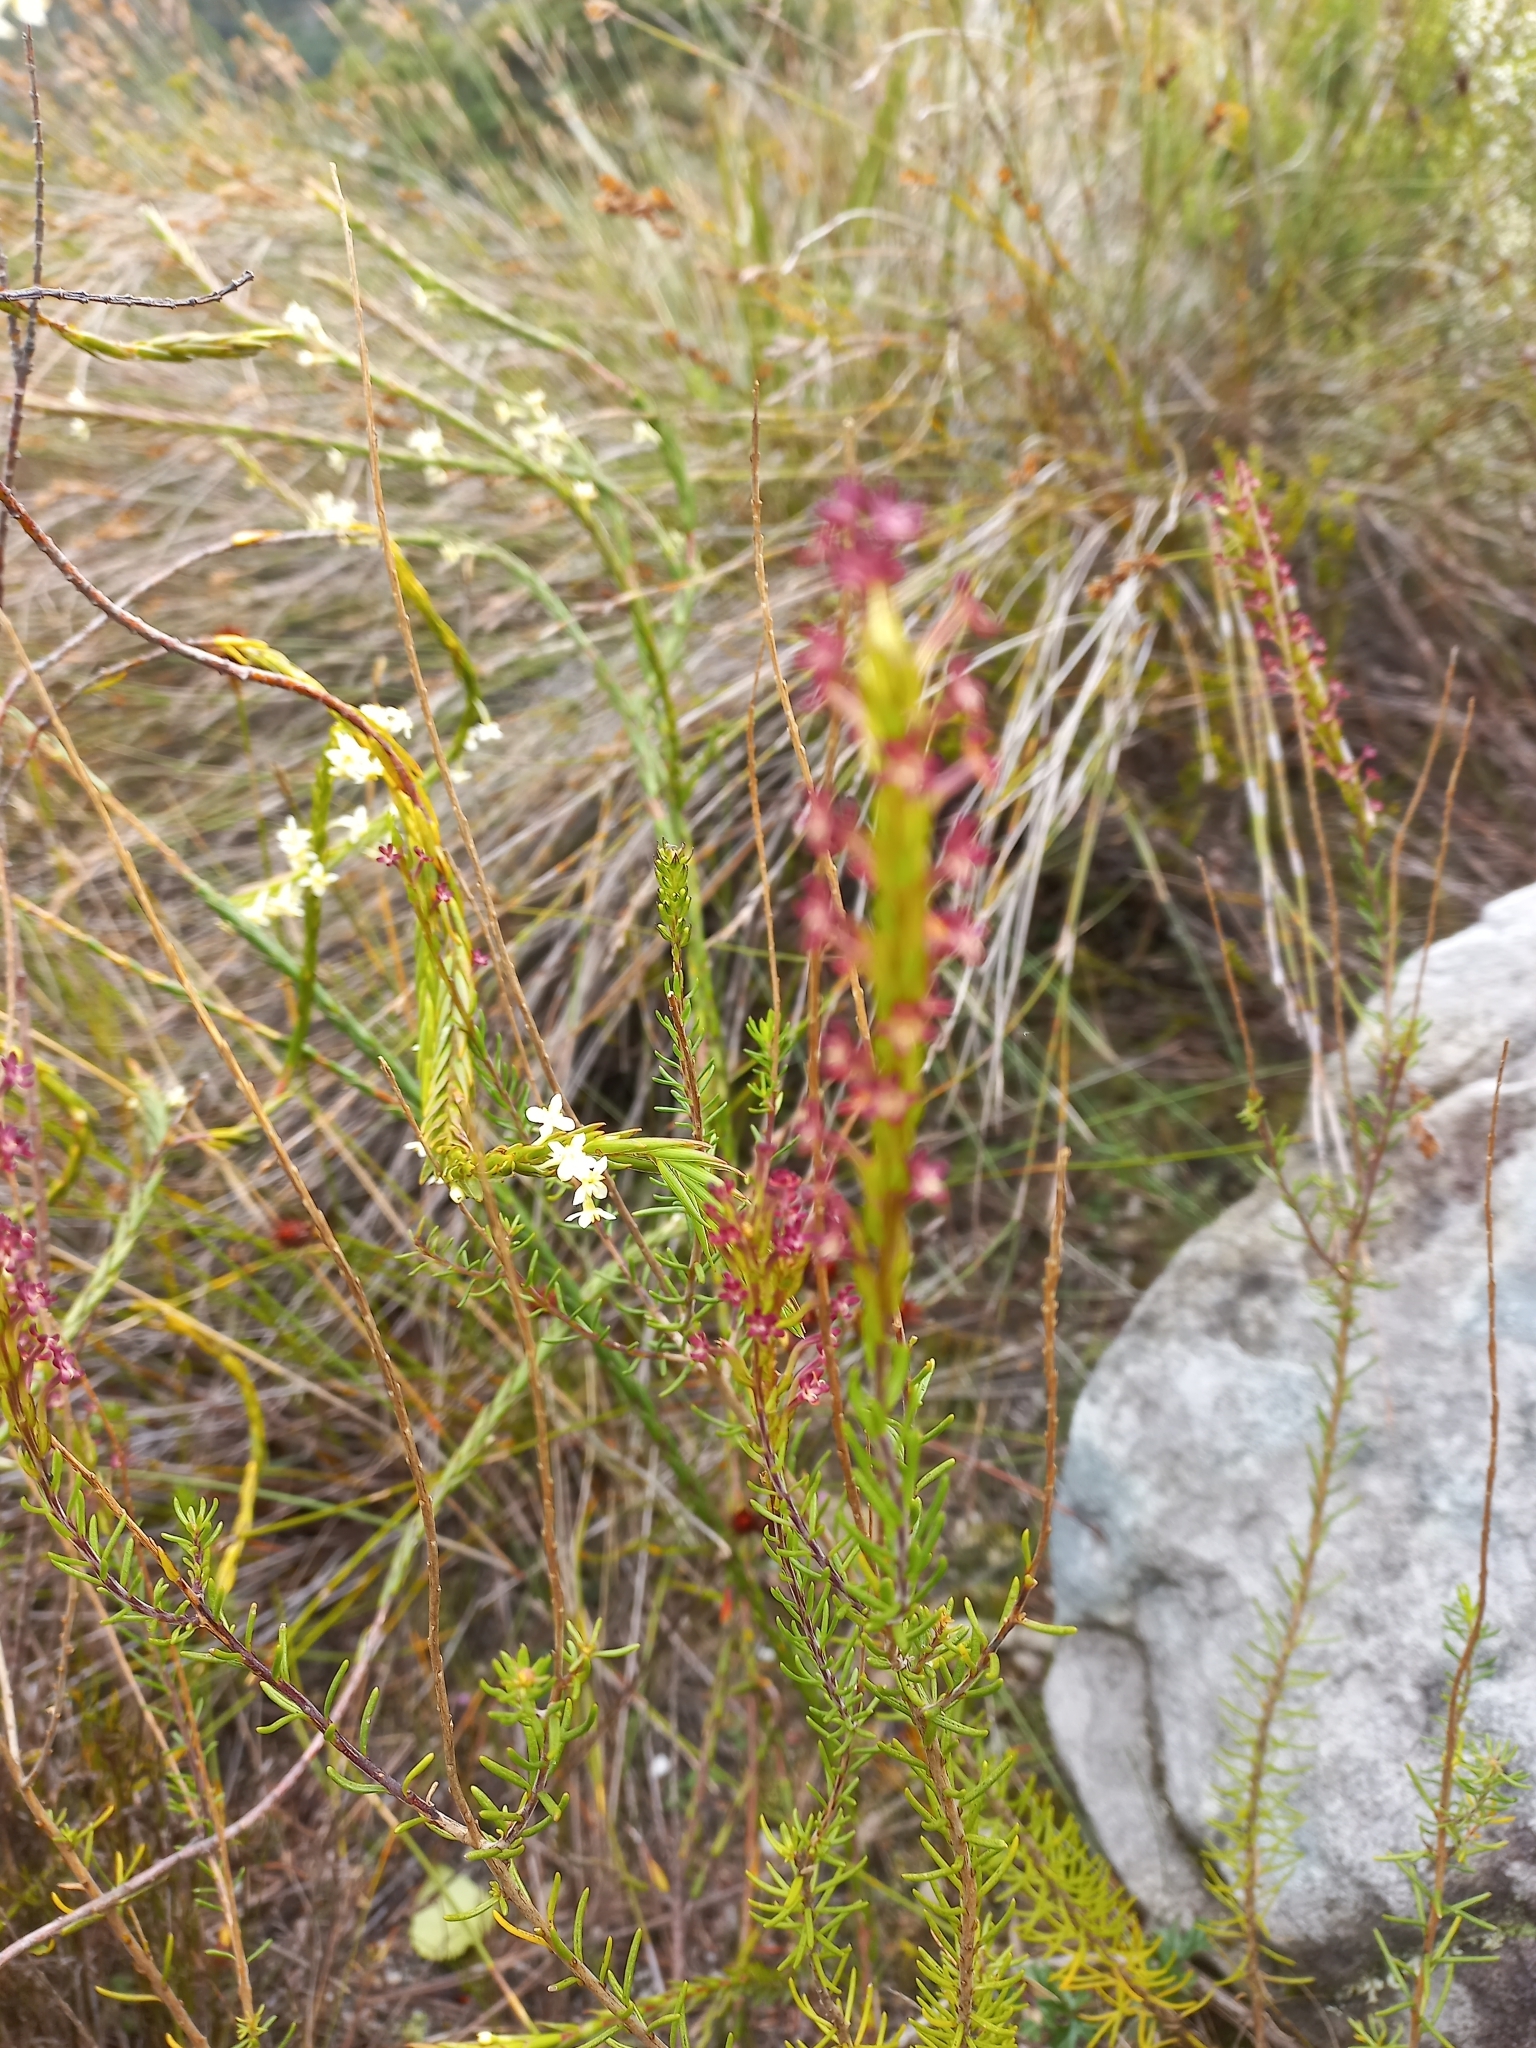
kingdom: Plantae
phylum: Tracheophyta
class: Magnoliopsida
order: Lamiales
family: Scrophulariaceae
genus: Microdon
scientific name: Microdon dubius
